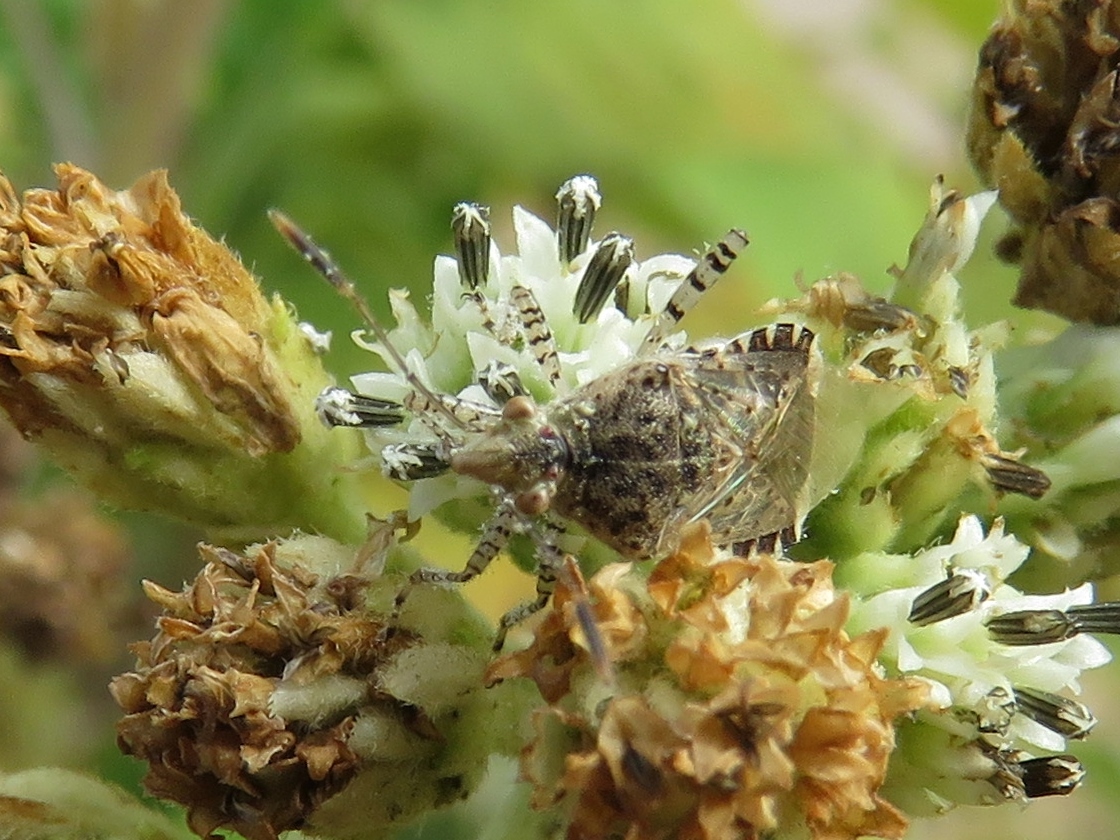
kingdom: Animalia
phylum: Arthropoda
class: Insecta
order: Hemiptera
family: Rhopalidae
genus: Niesthrea
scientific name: Niesthrea louisianica
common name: Scentless plant bug
